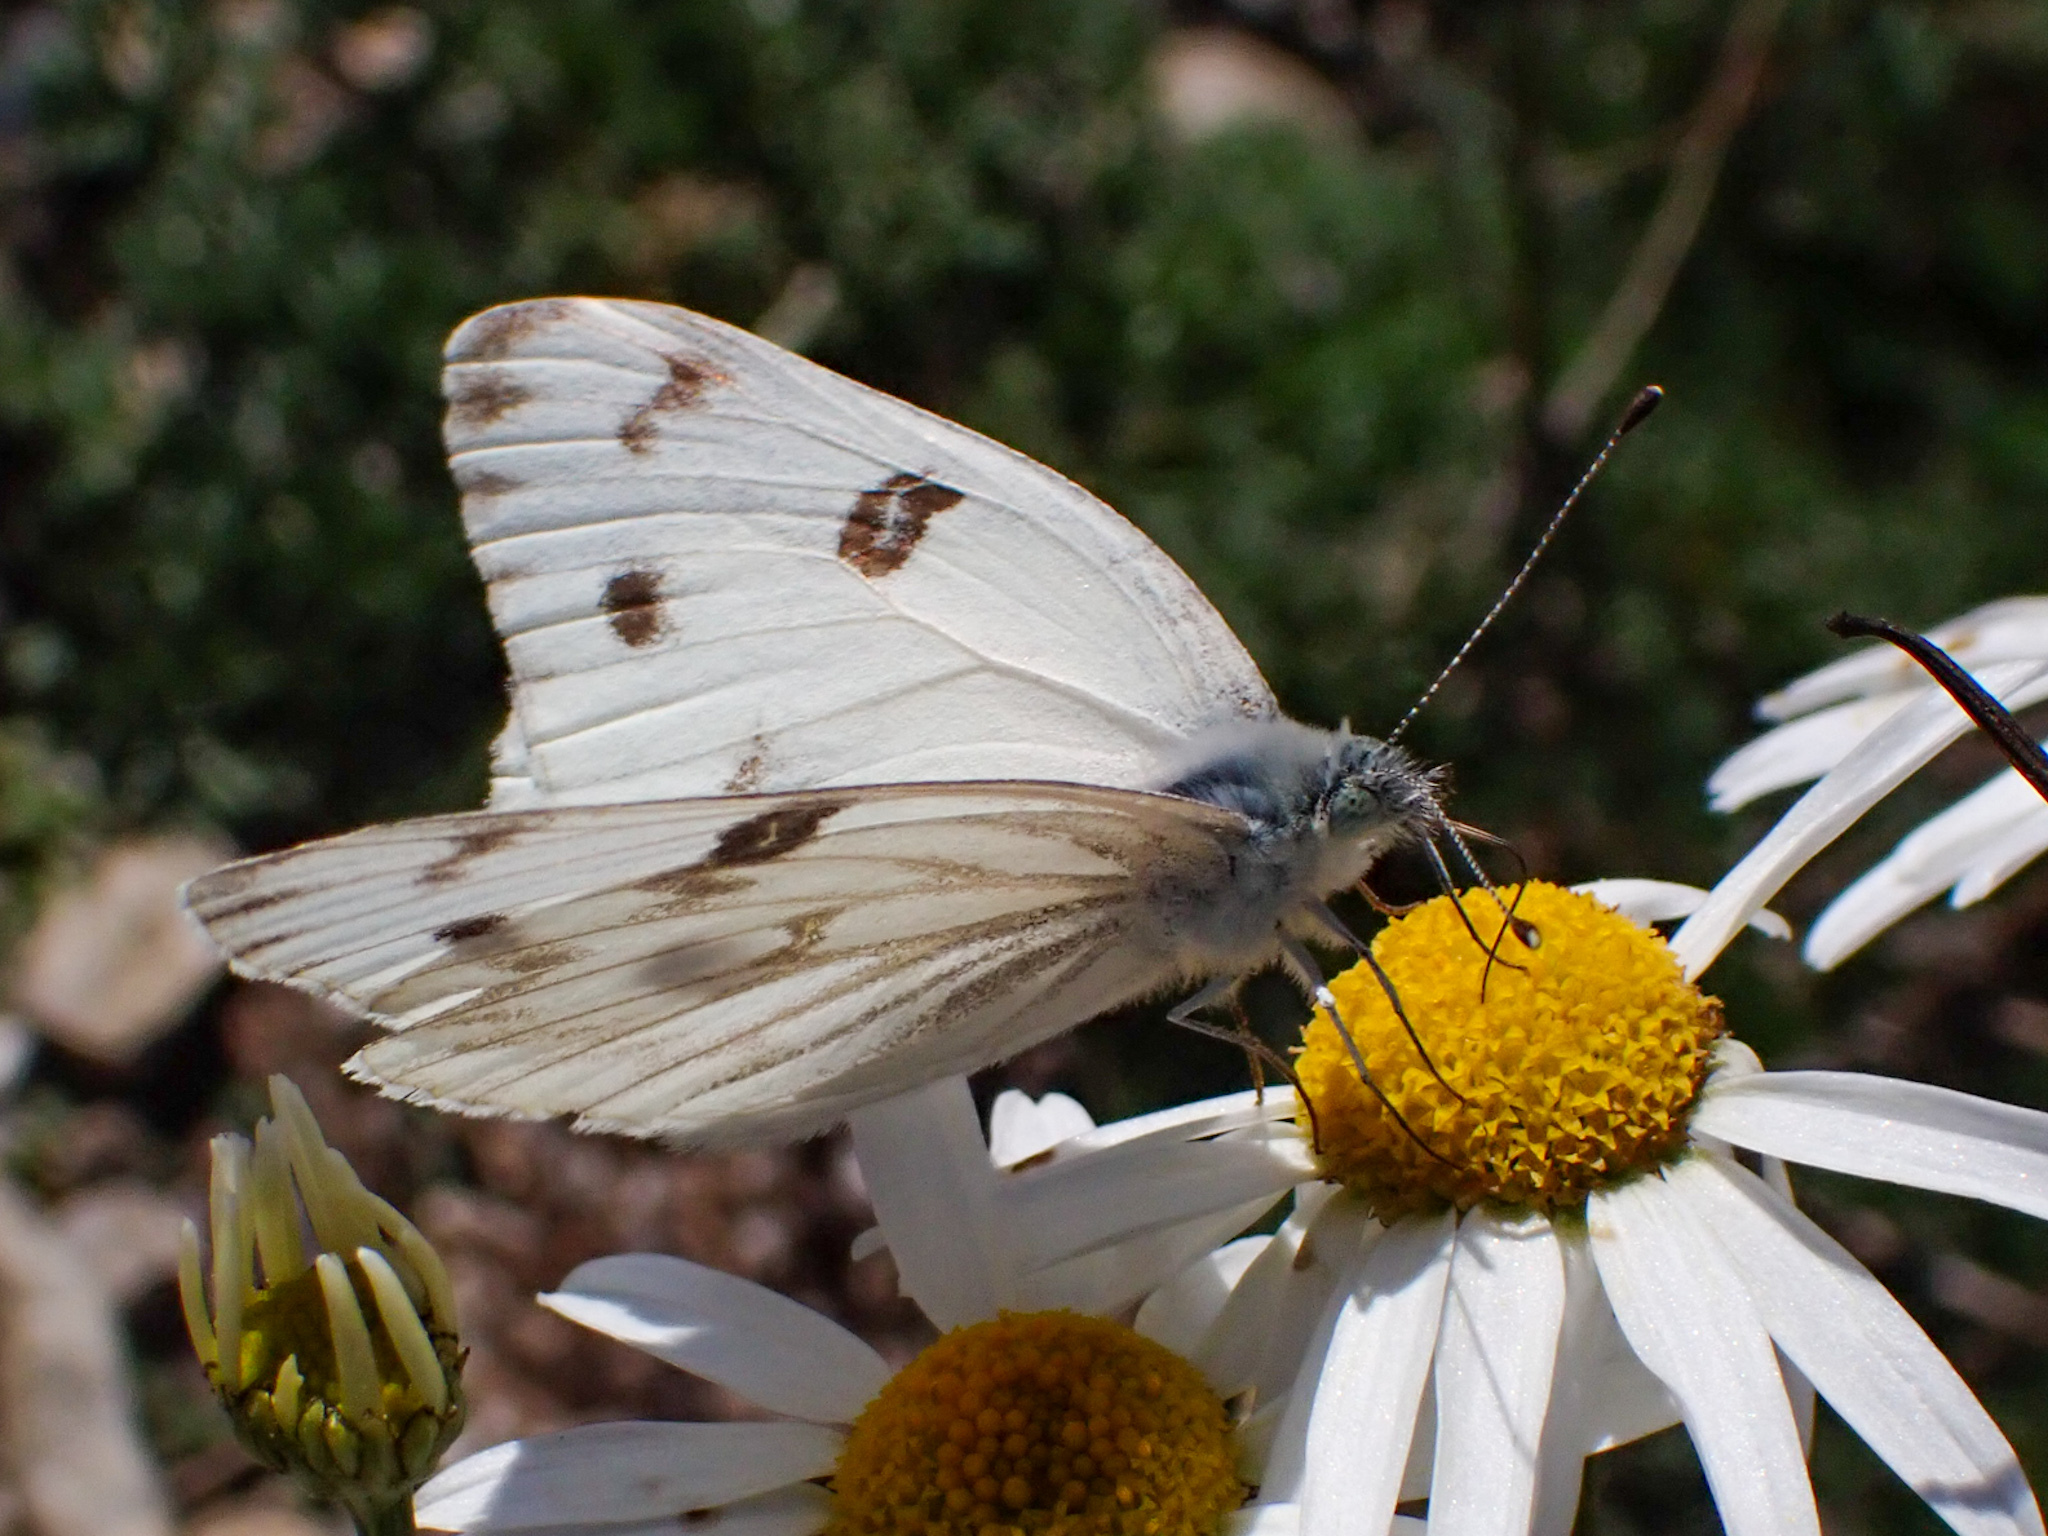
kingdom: Animalia
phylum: Arthropoda
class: Insecta
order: Lepidoptera
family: Pieridae
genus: Pontia
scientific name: Pontia protodice
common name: Checkered white
